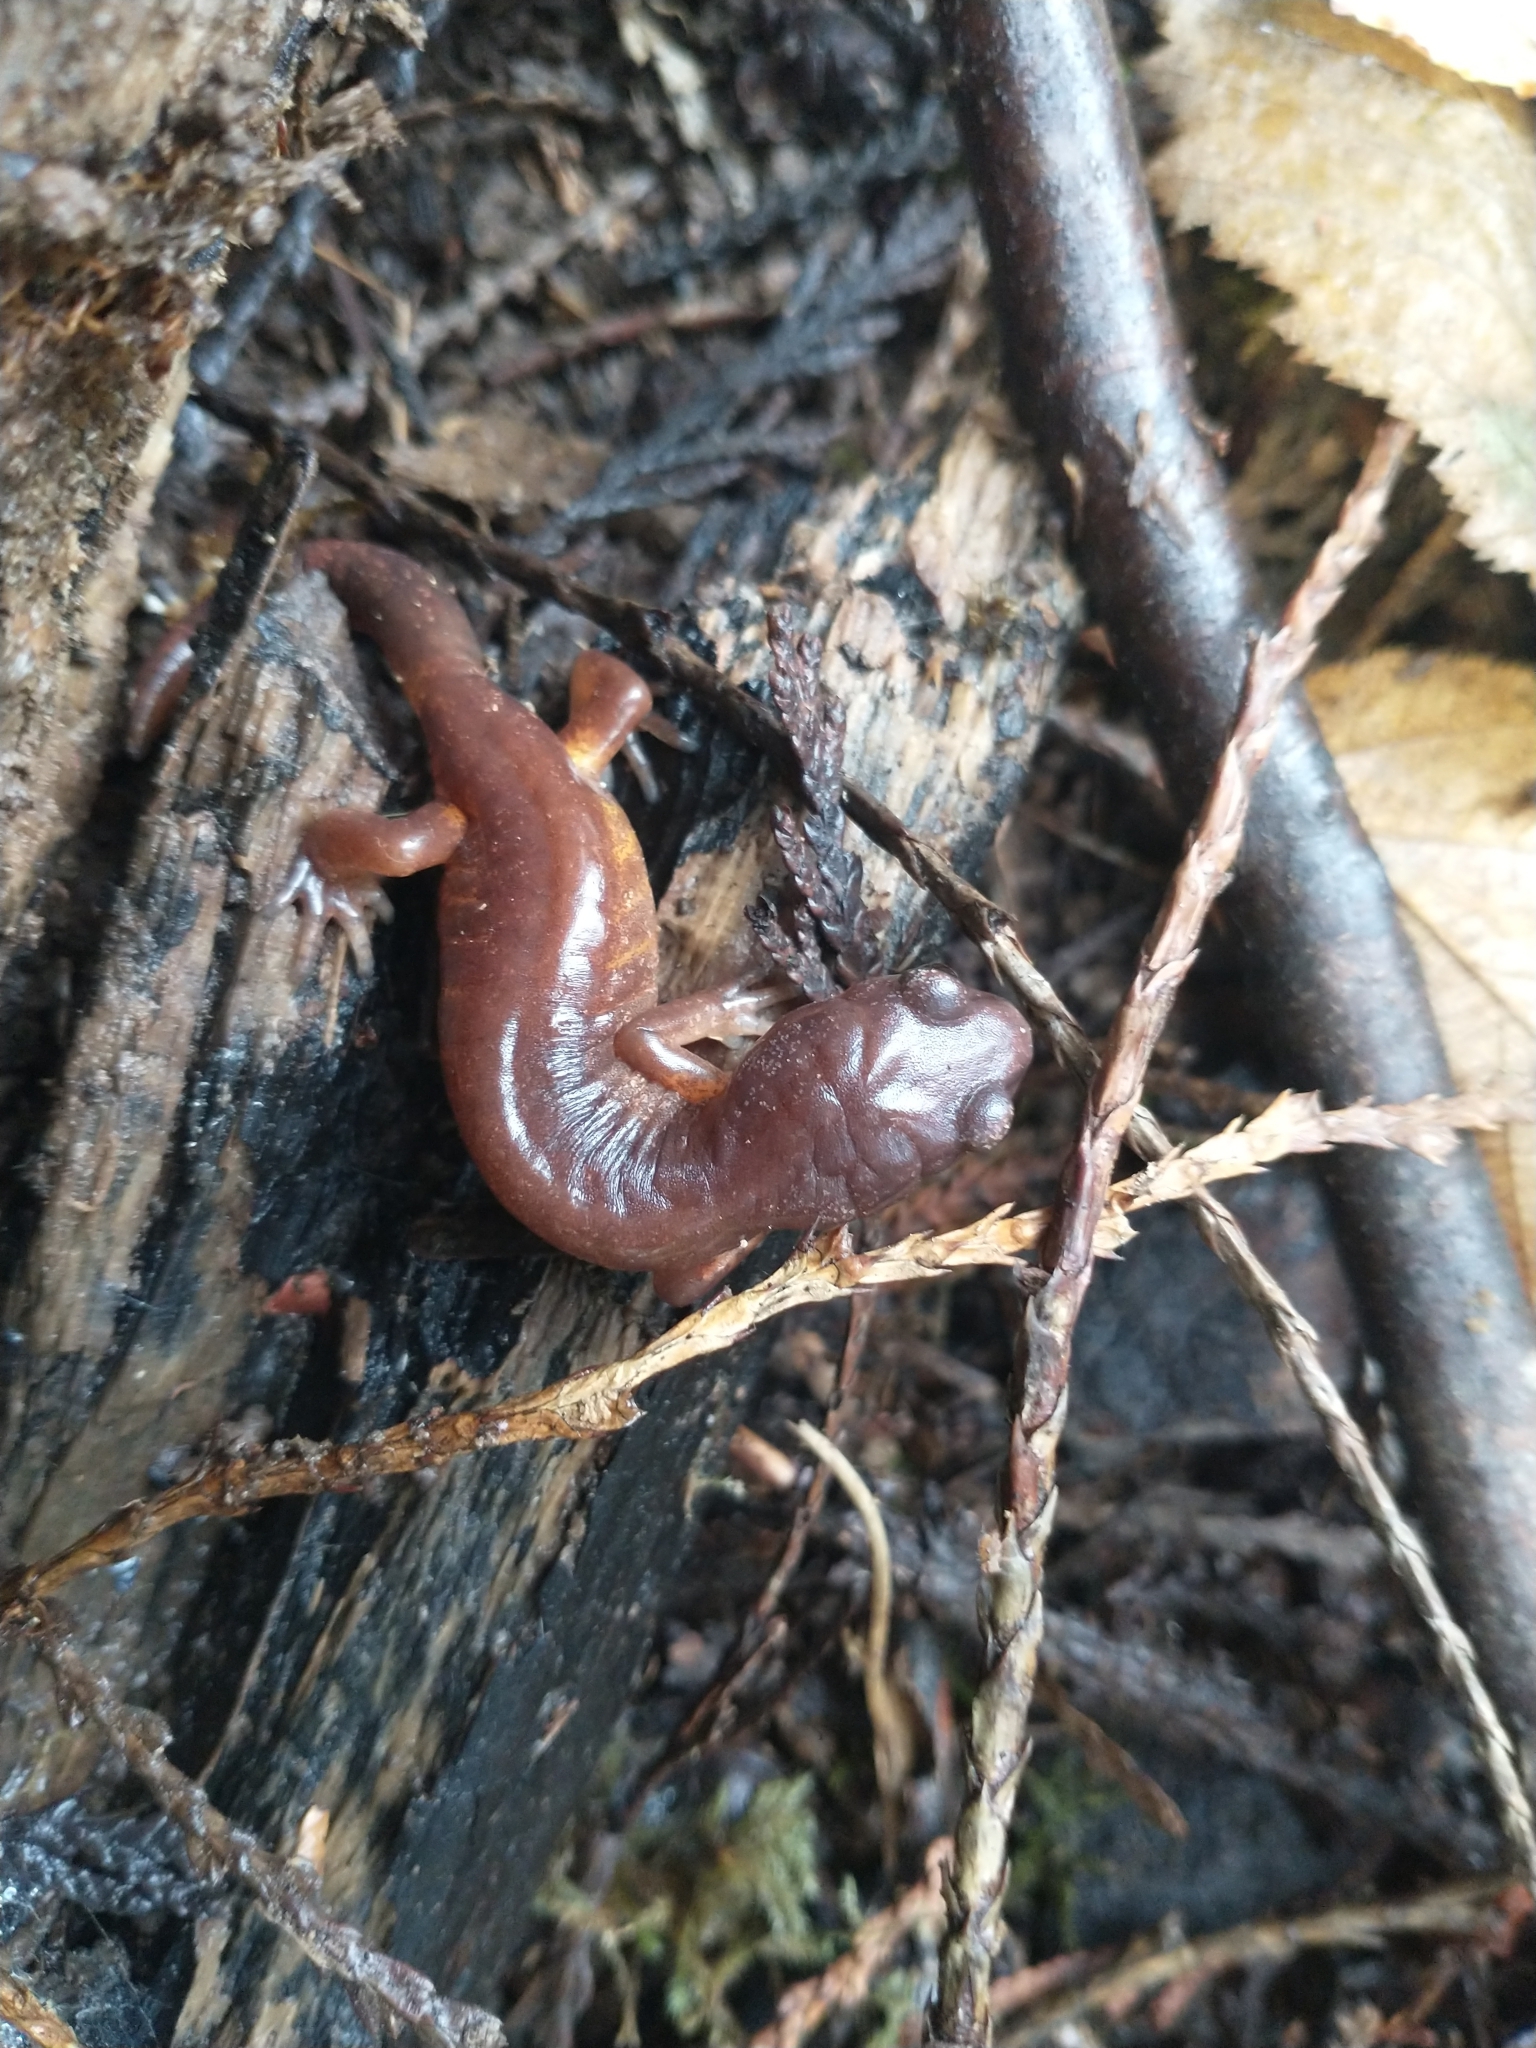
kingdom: Animalia
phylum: Chordata
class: Amphibia
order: Caudata
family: Plethodontidae
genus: Ensatina
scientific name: Ensatina eschscholtzii
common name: Ensatina
